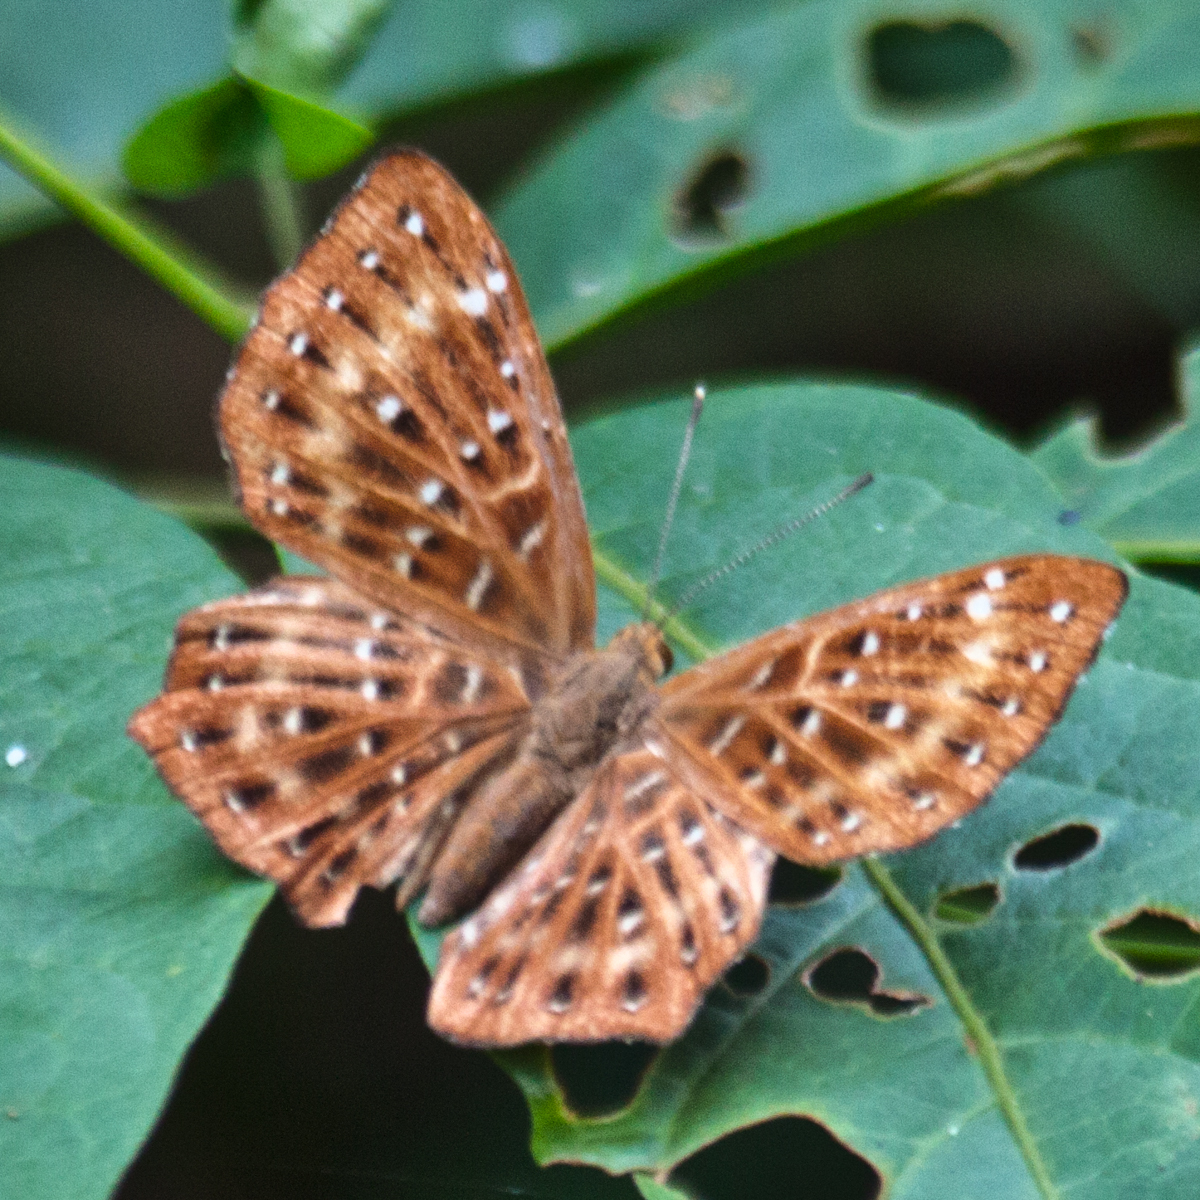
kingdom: Animalia
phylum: Arthropoda
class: Insecta
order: Lepidoptera
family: Riodinidae
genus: Zemeros
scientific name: Zemeros flegyas
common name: Punchinello
